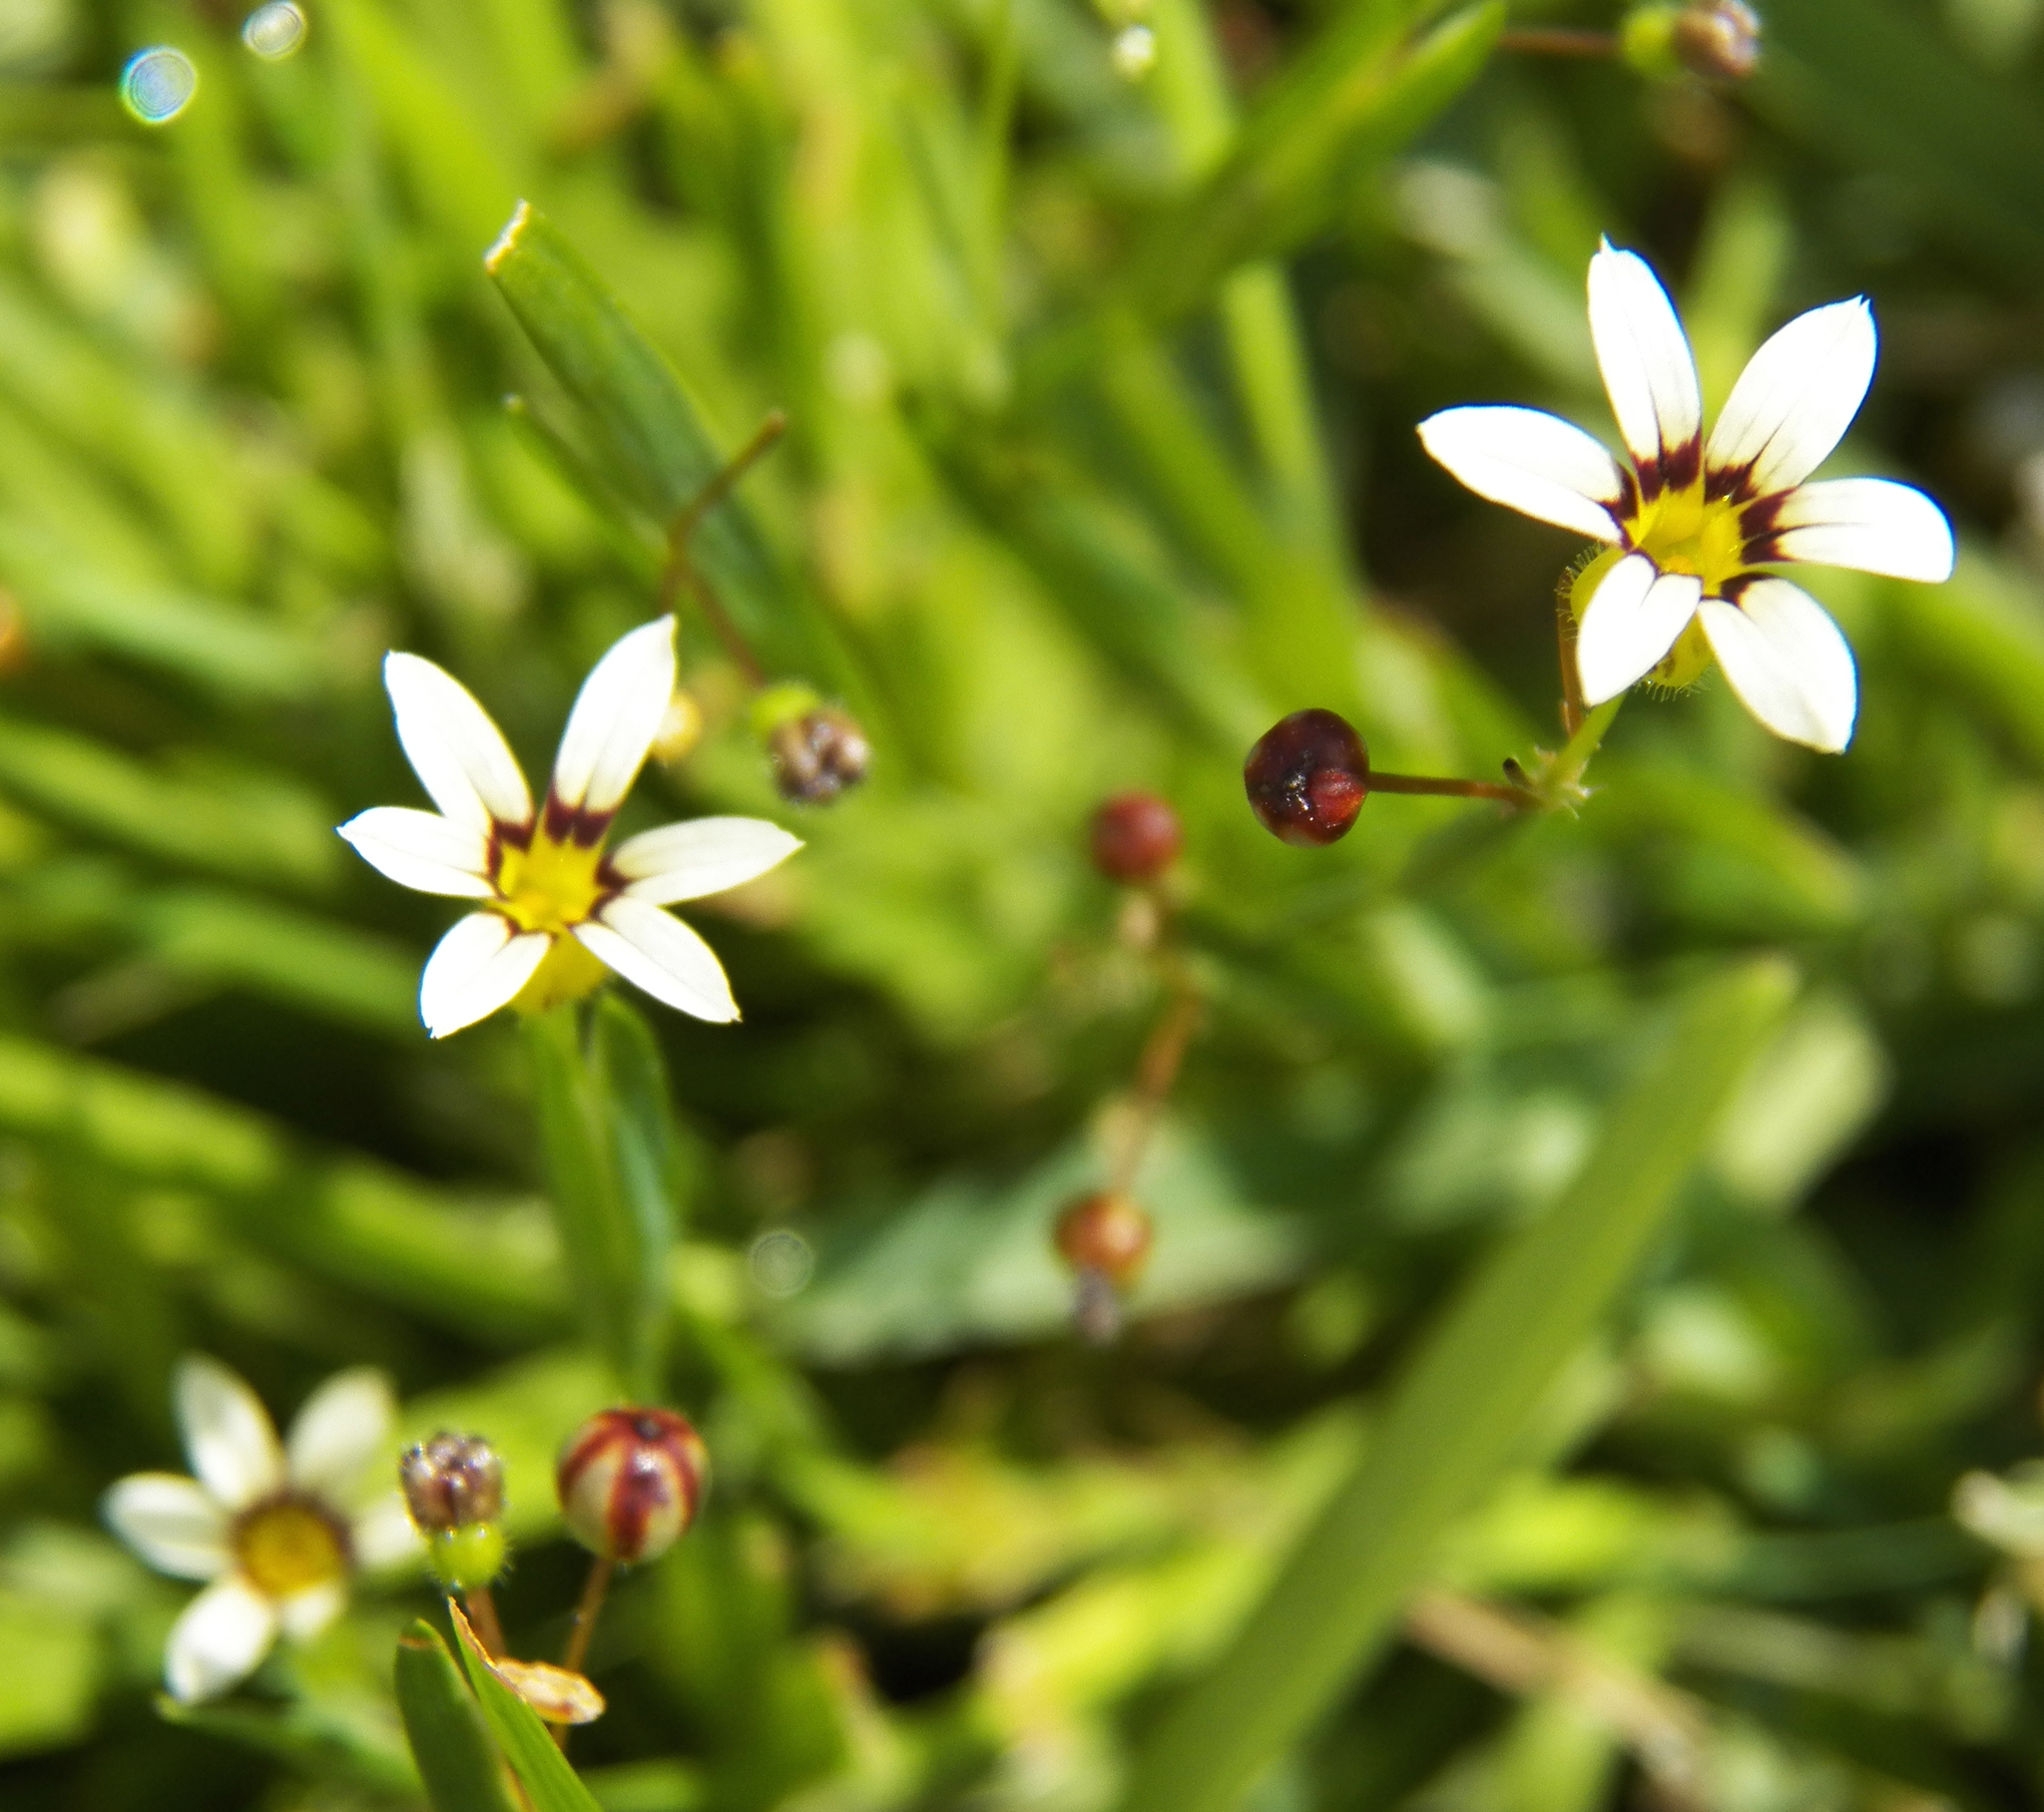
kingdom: Plantae
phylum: Tracheophyta
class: Liliopsida
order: Asparagales
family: Iridaceae
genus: Sisyrinchium
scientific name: Sisyrinchium micranthum
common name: Bermuda pigroot
